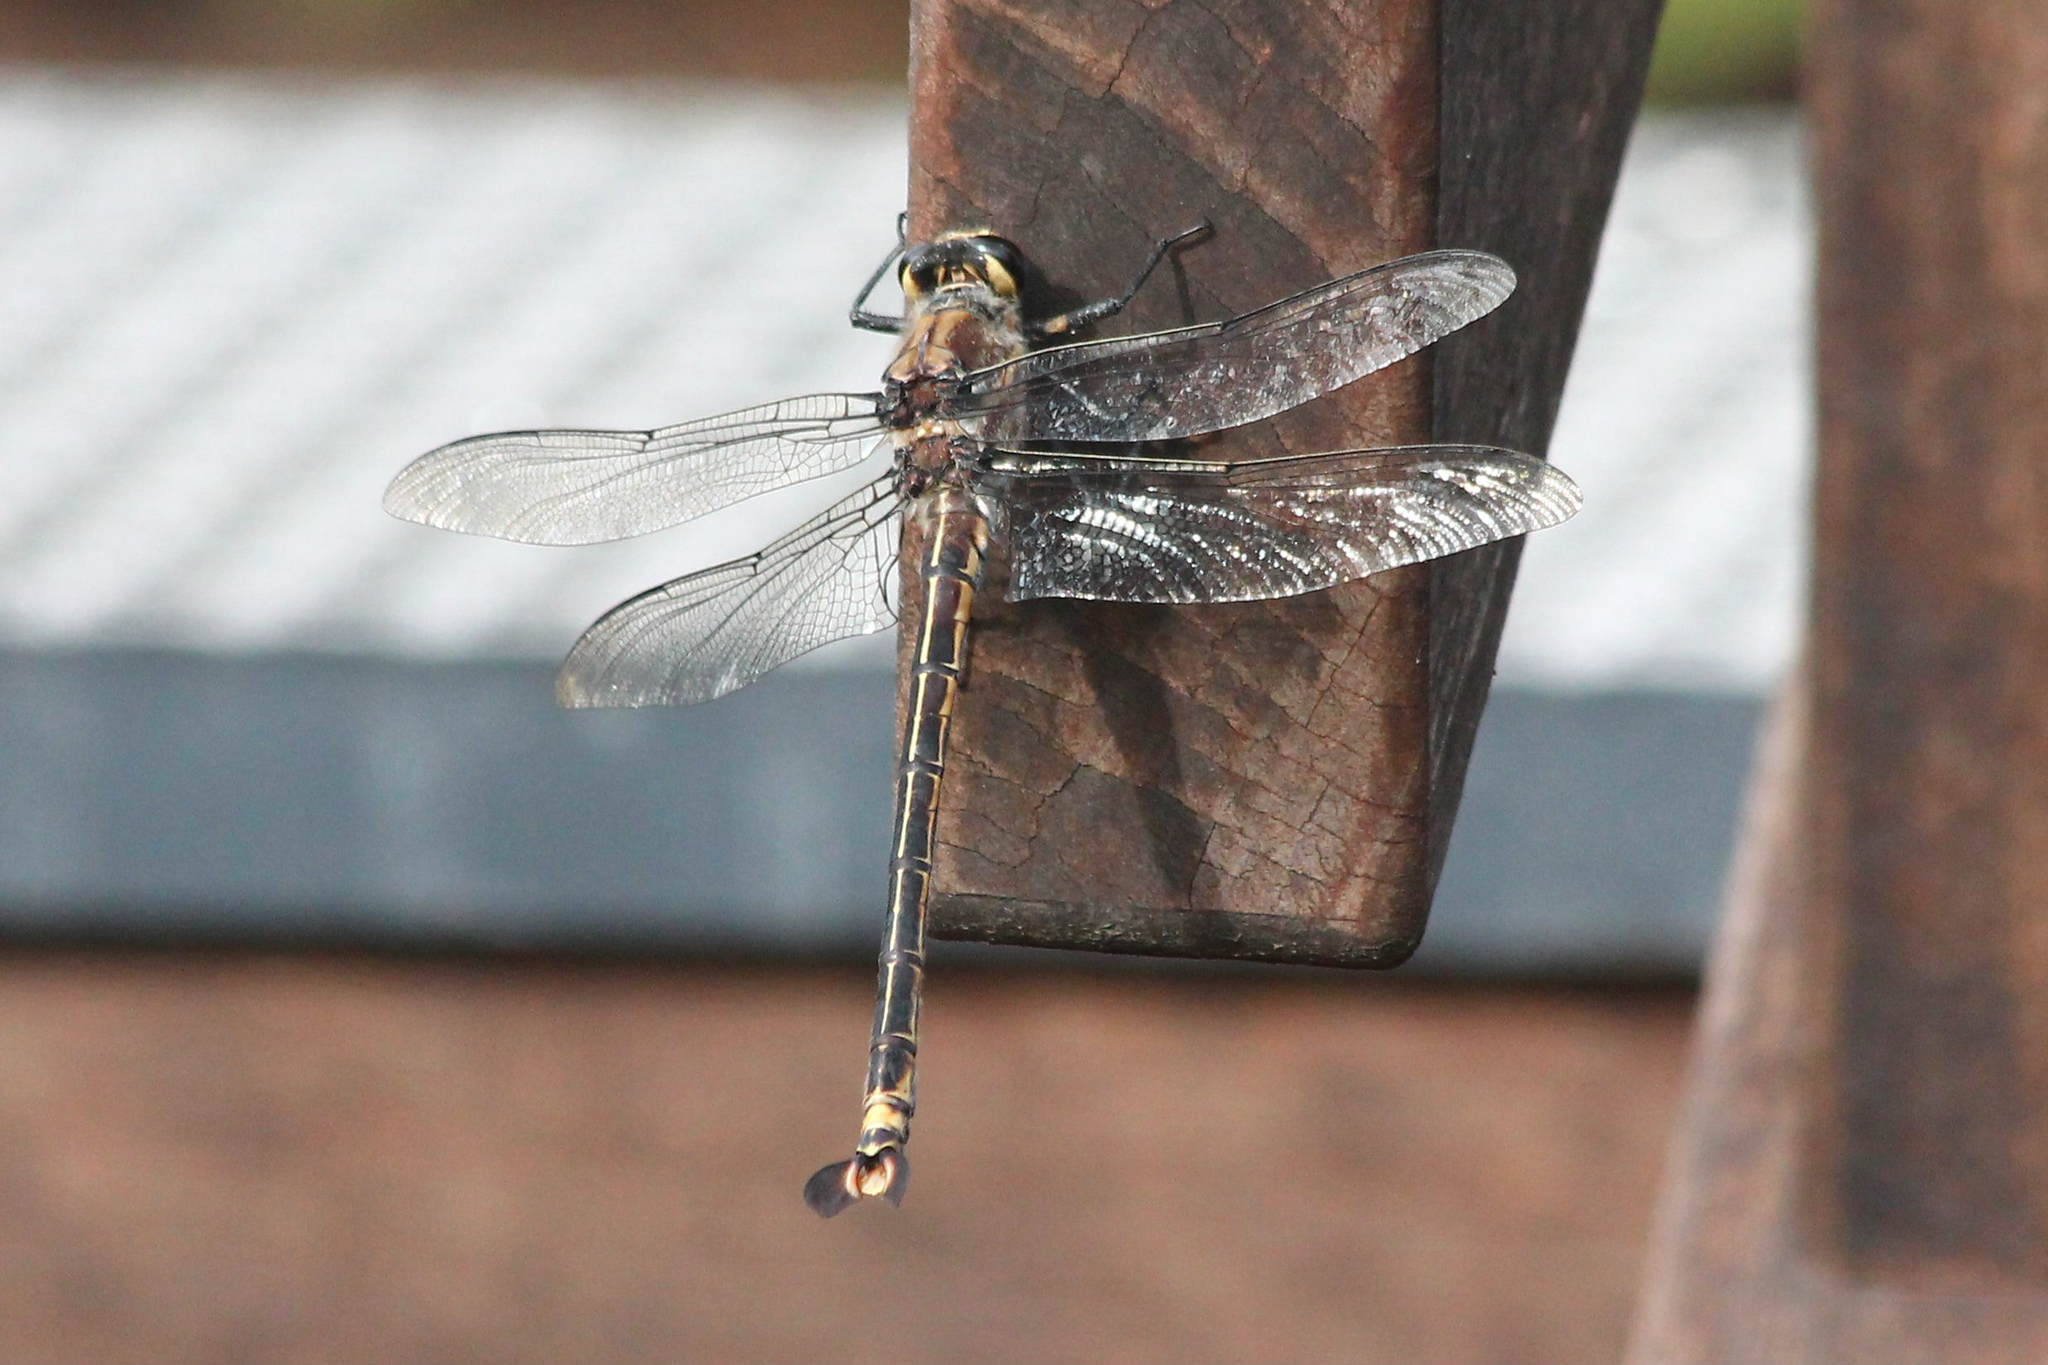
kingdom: Animalia
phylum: Arthropoda
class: Insecta
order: Odonata
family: Petaluridae
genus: Petalura
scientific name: Petalura gigantea
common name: South-eastern petaltail
